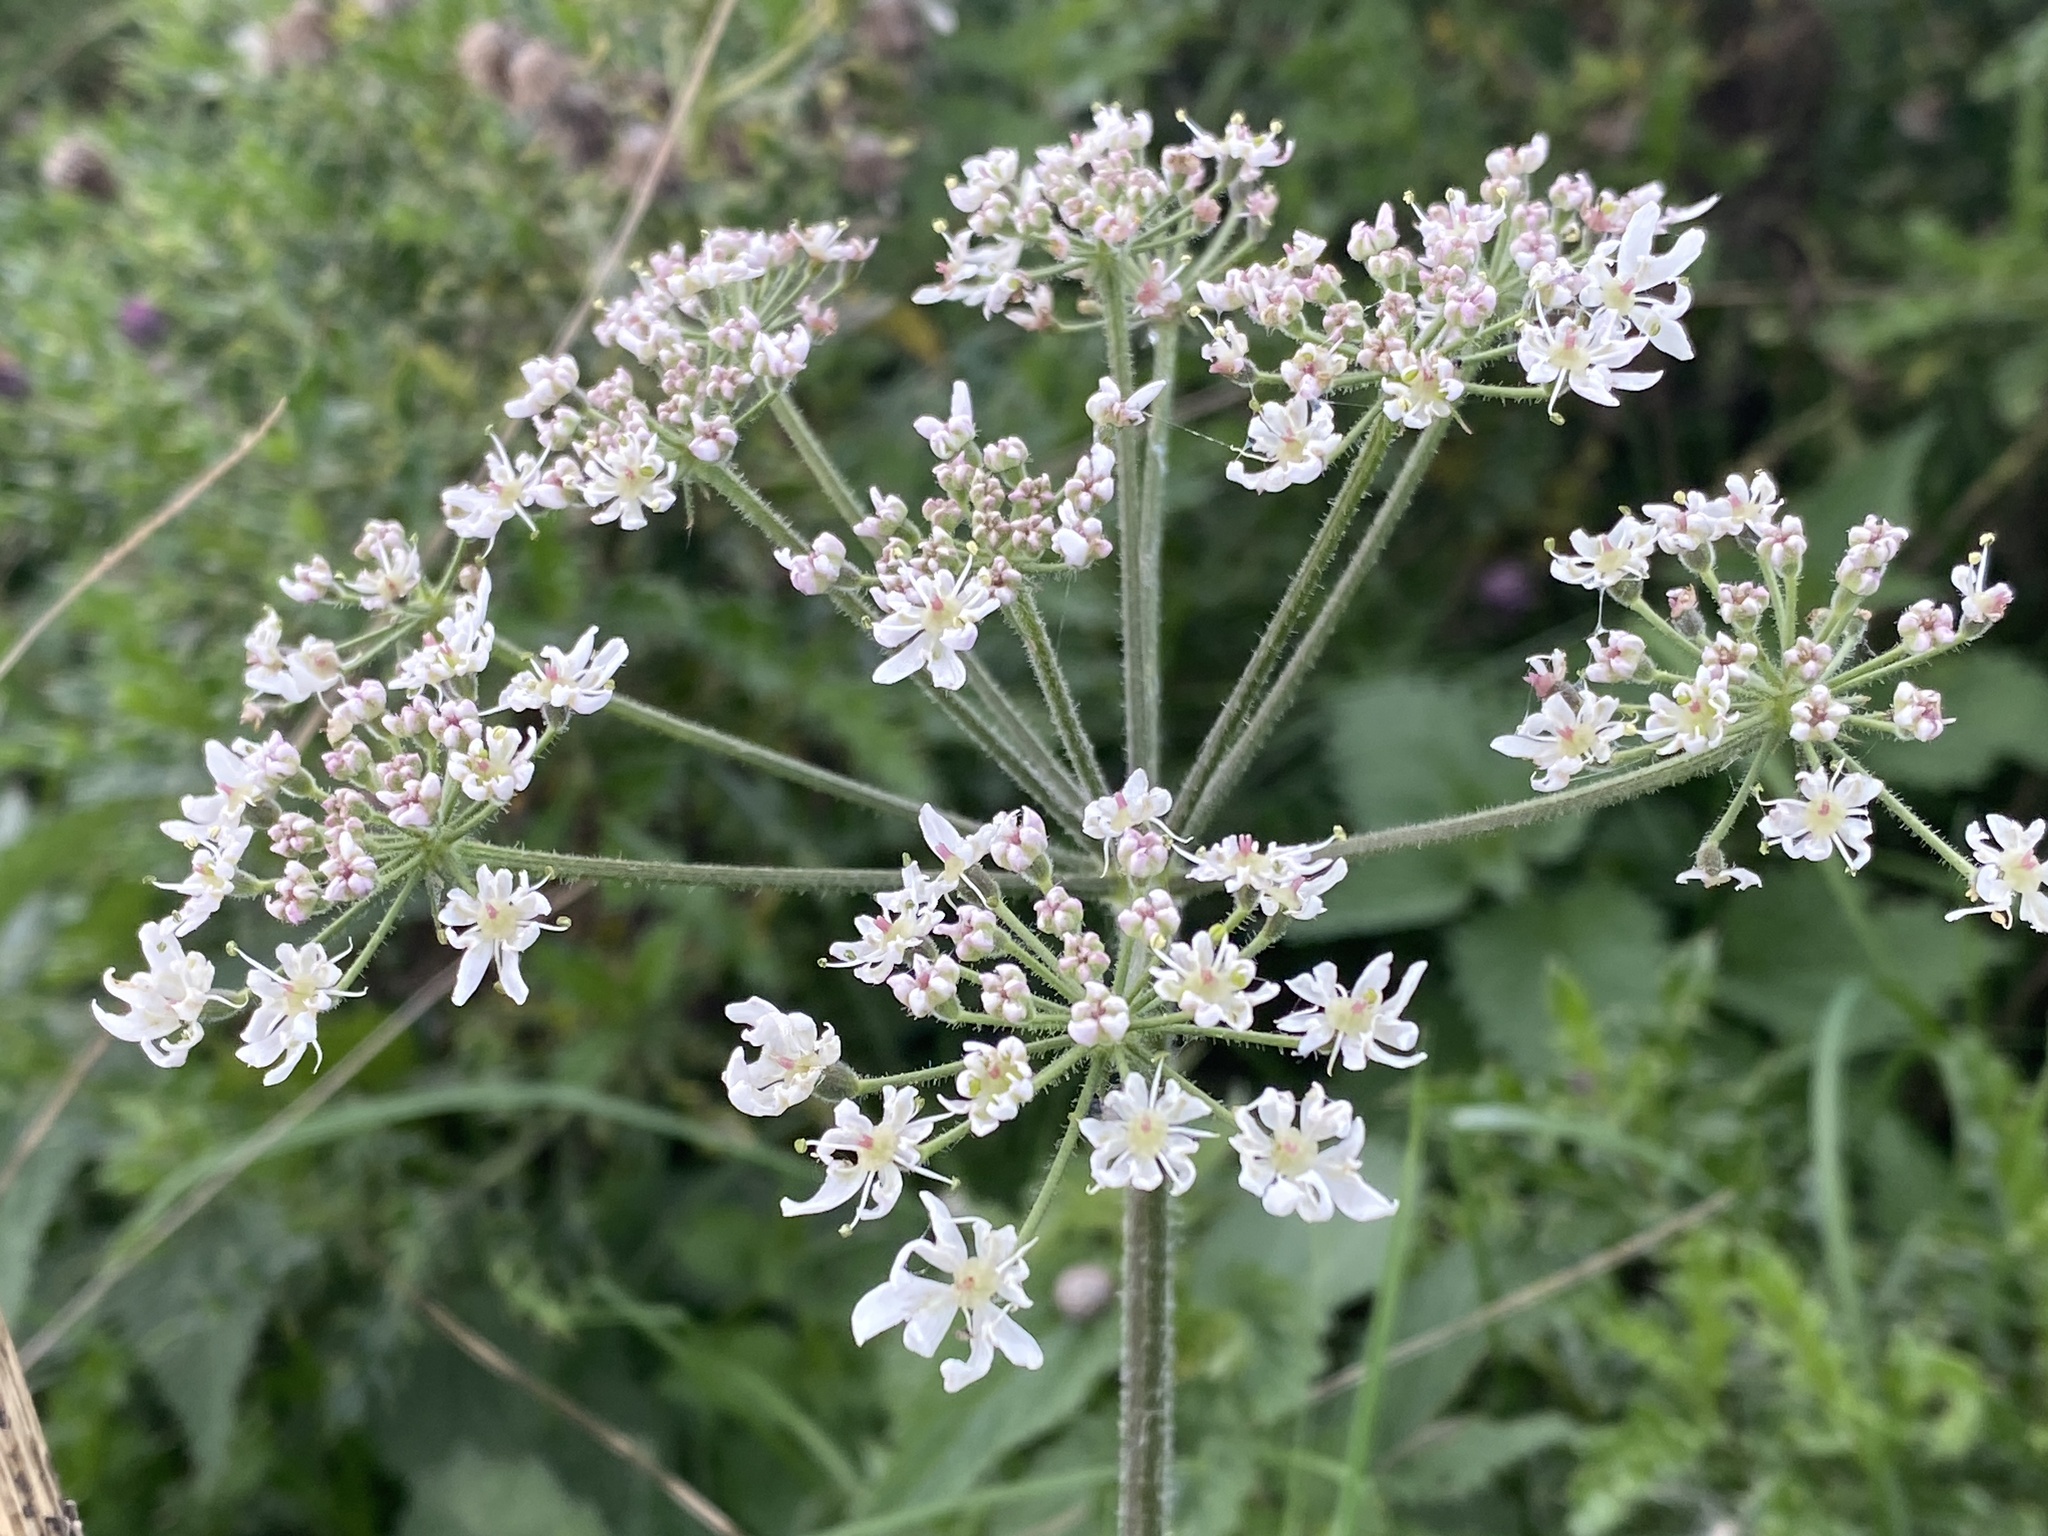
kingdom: Plantae
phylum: Tracheophyta
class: Magnoliopsida
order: Apiales
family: Apiaceae
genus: Heracleum
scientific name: Heracleum sphondylium
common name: Hogweed
